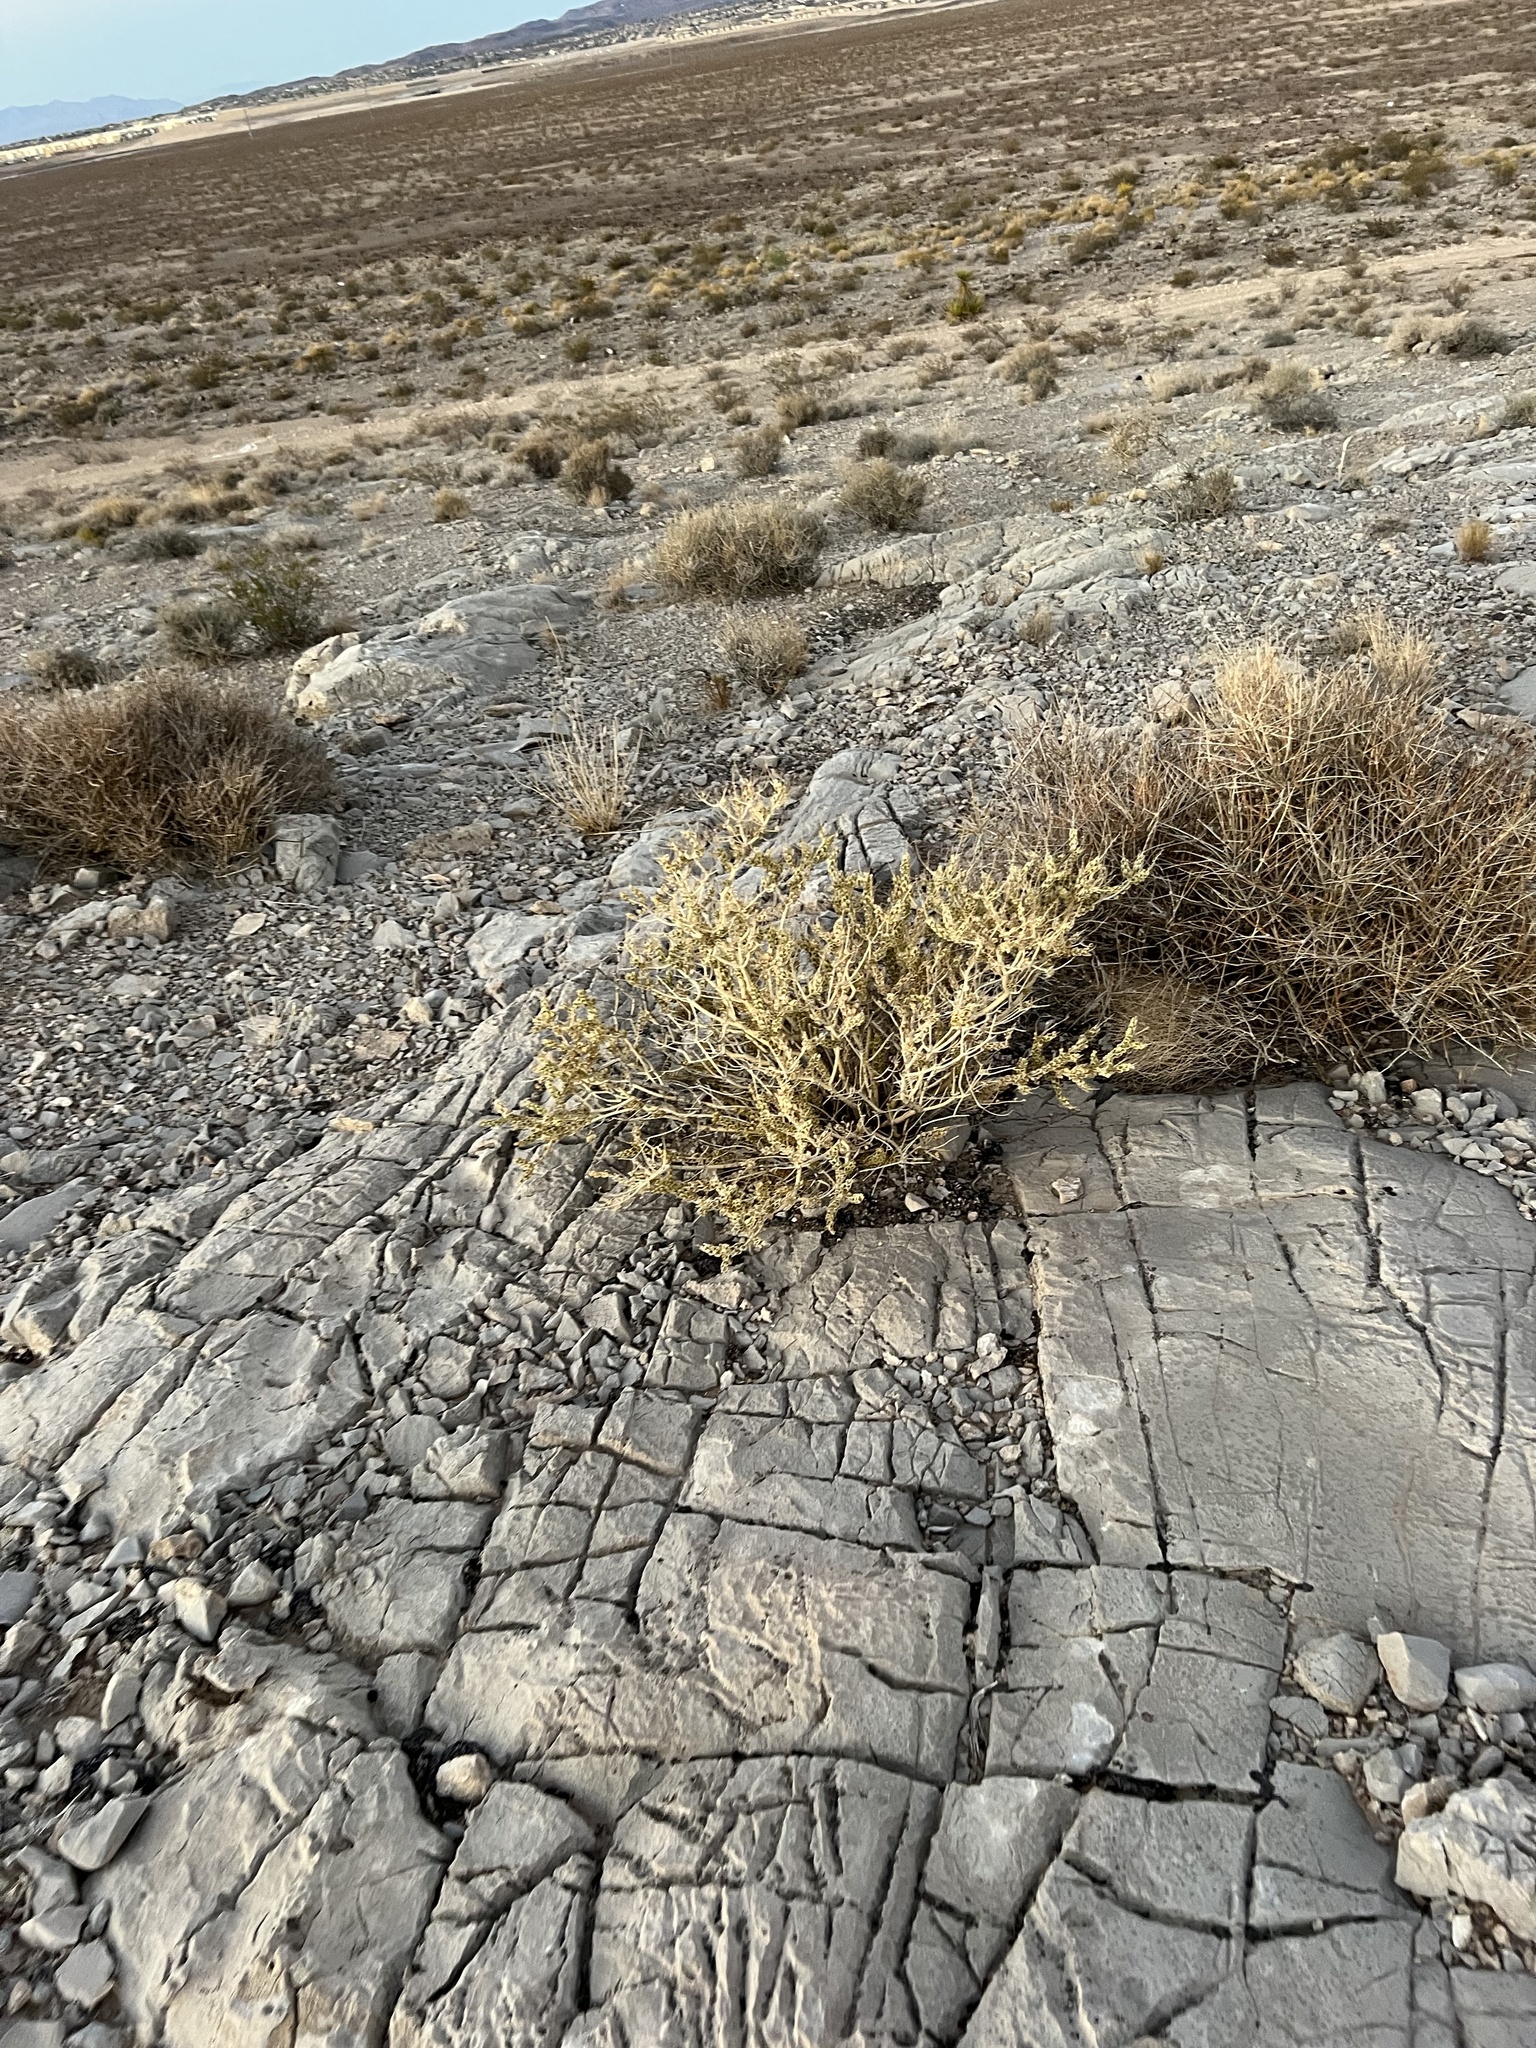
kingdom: Plantae
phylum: Tracheophyta
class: Magnoliopsida
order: Celastrales
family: Celastraceae
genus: Mortonia
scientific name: Mortonia utahensis
